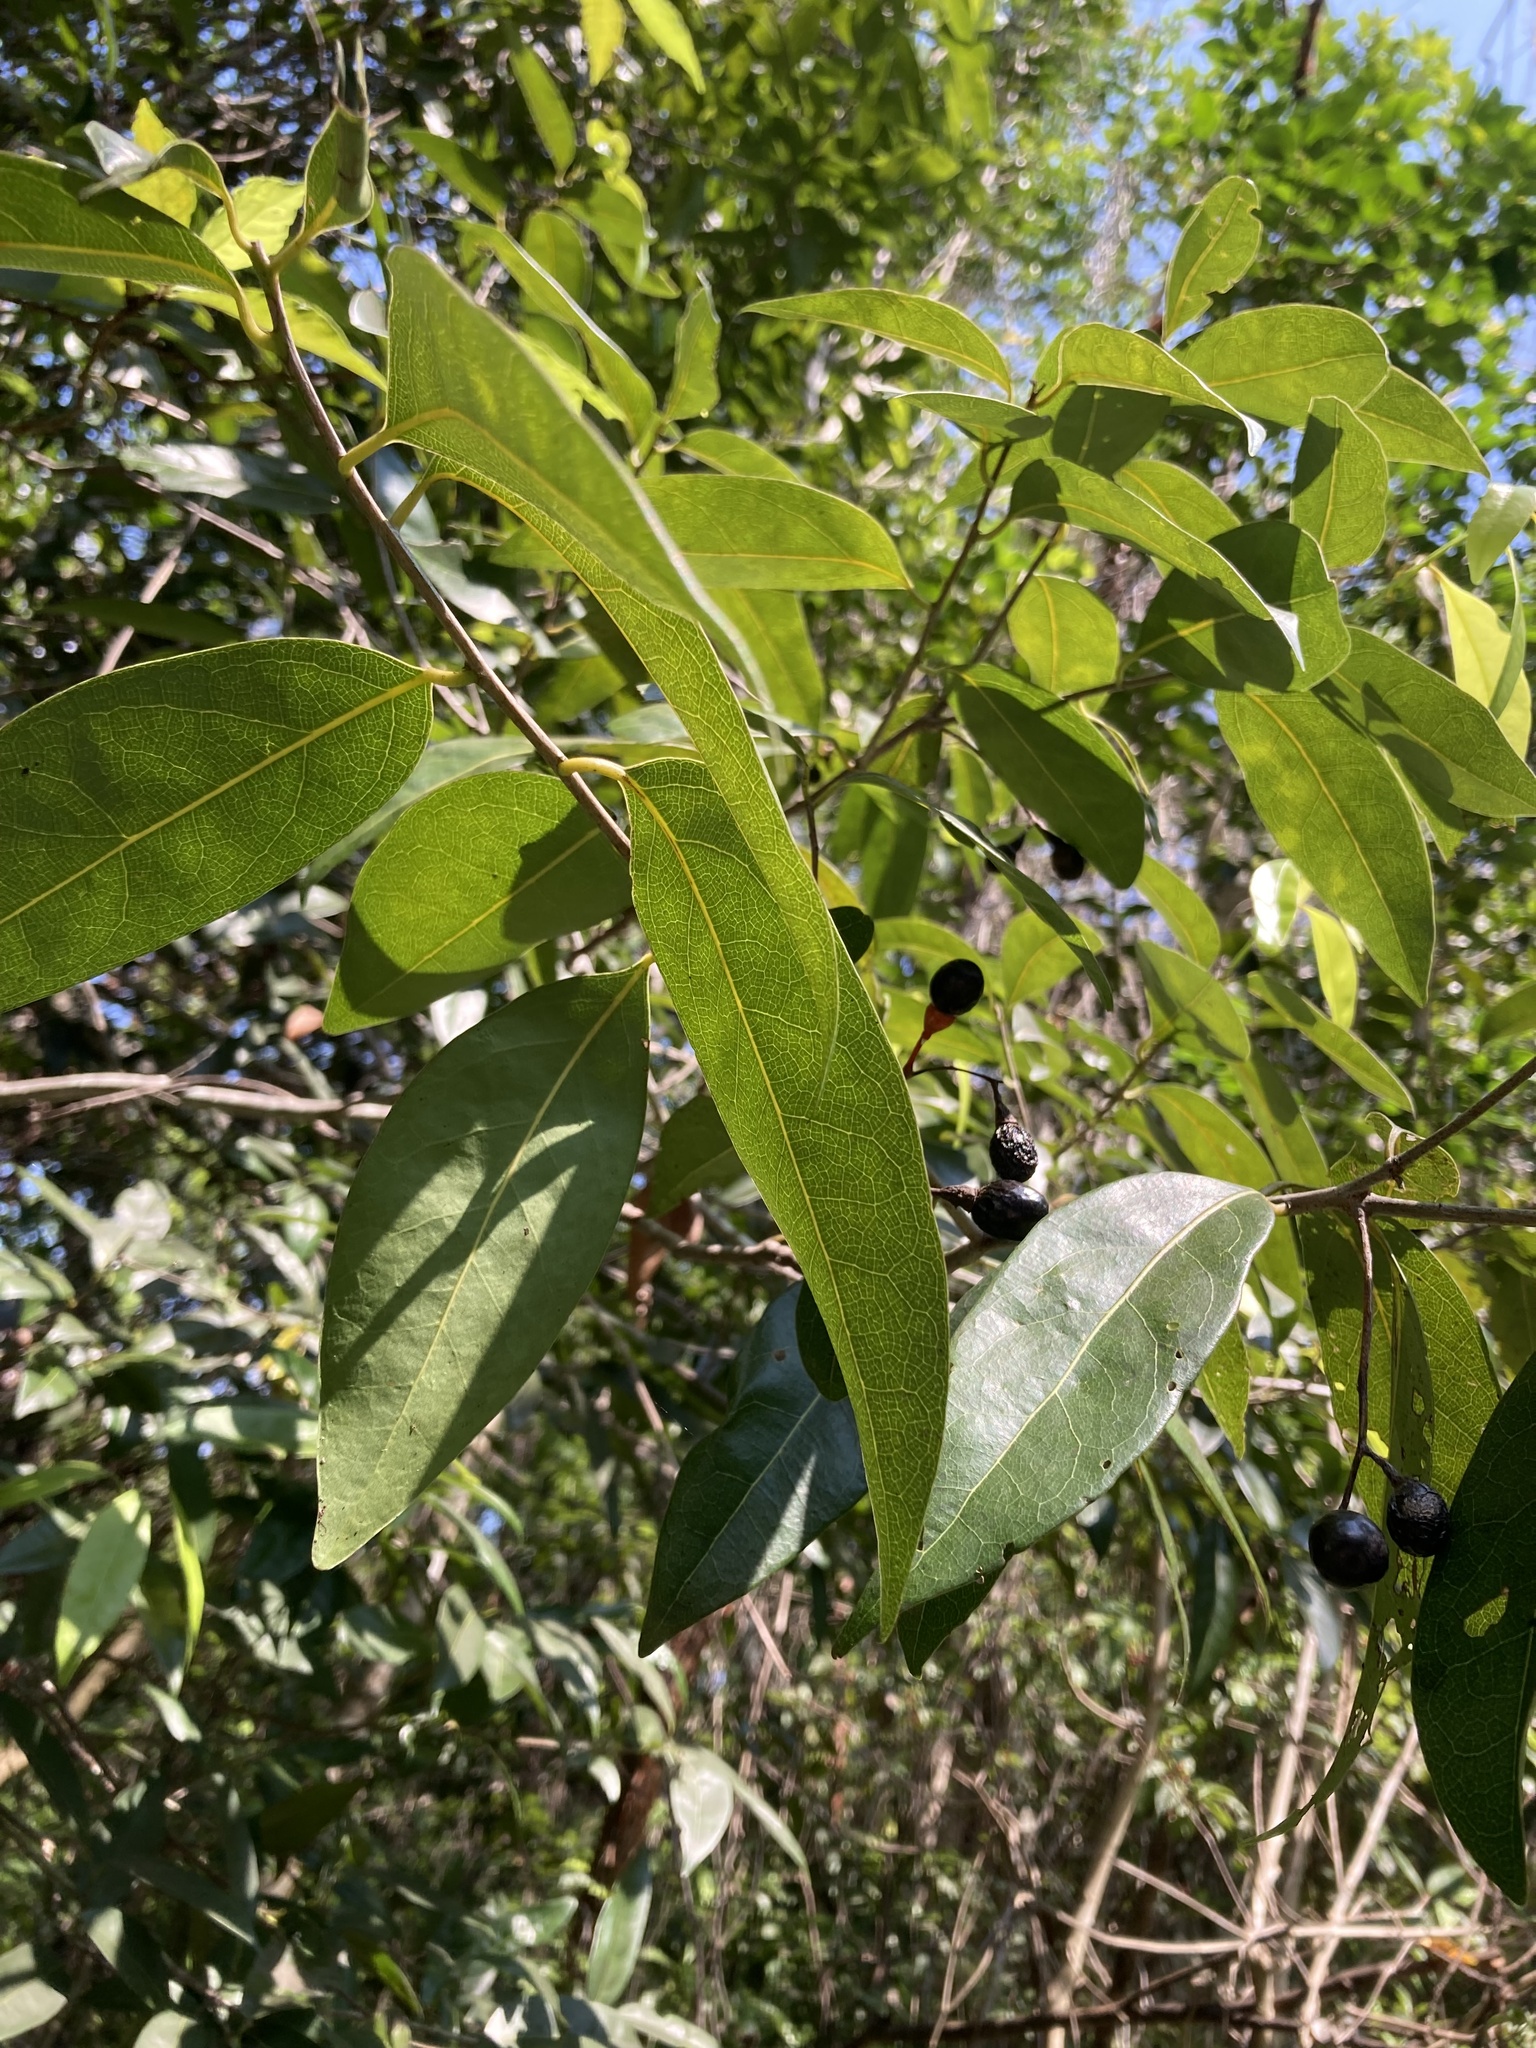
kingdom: Plantae
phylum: Tracheophyta
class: Magnoliopsida
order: Laurales
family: Lauraceae
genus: Damburneya
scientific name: Damburneya
